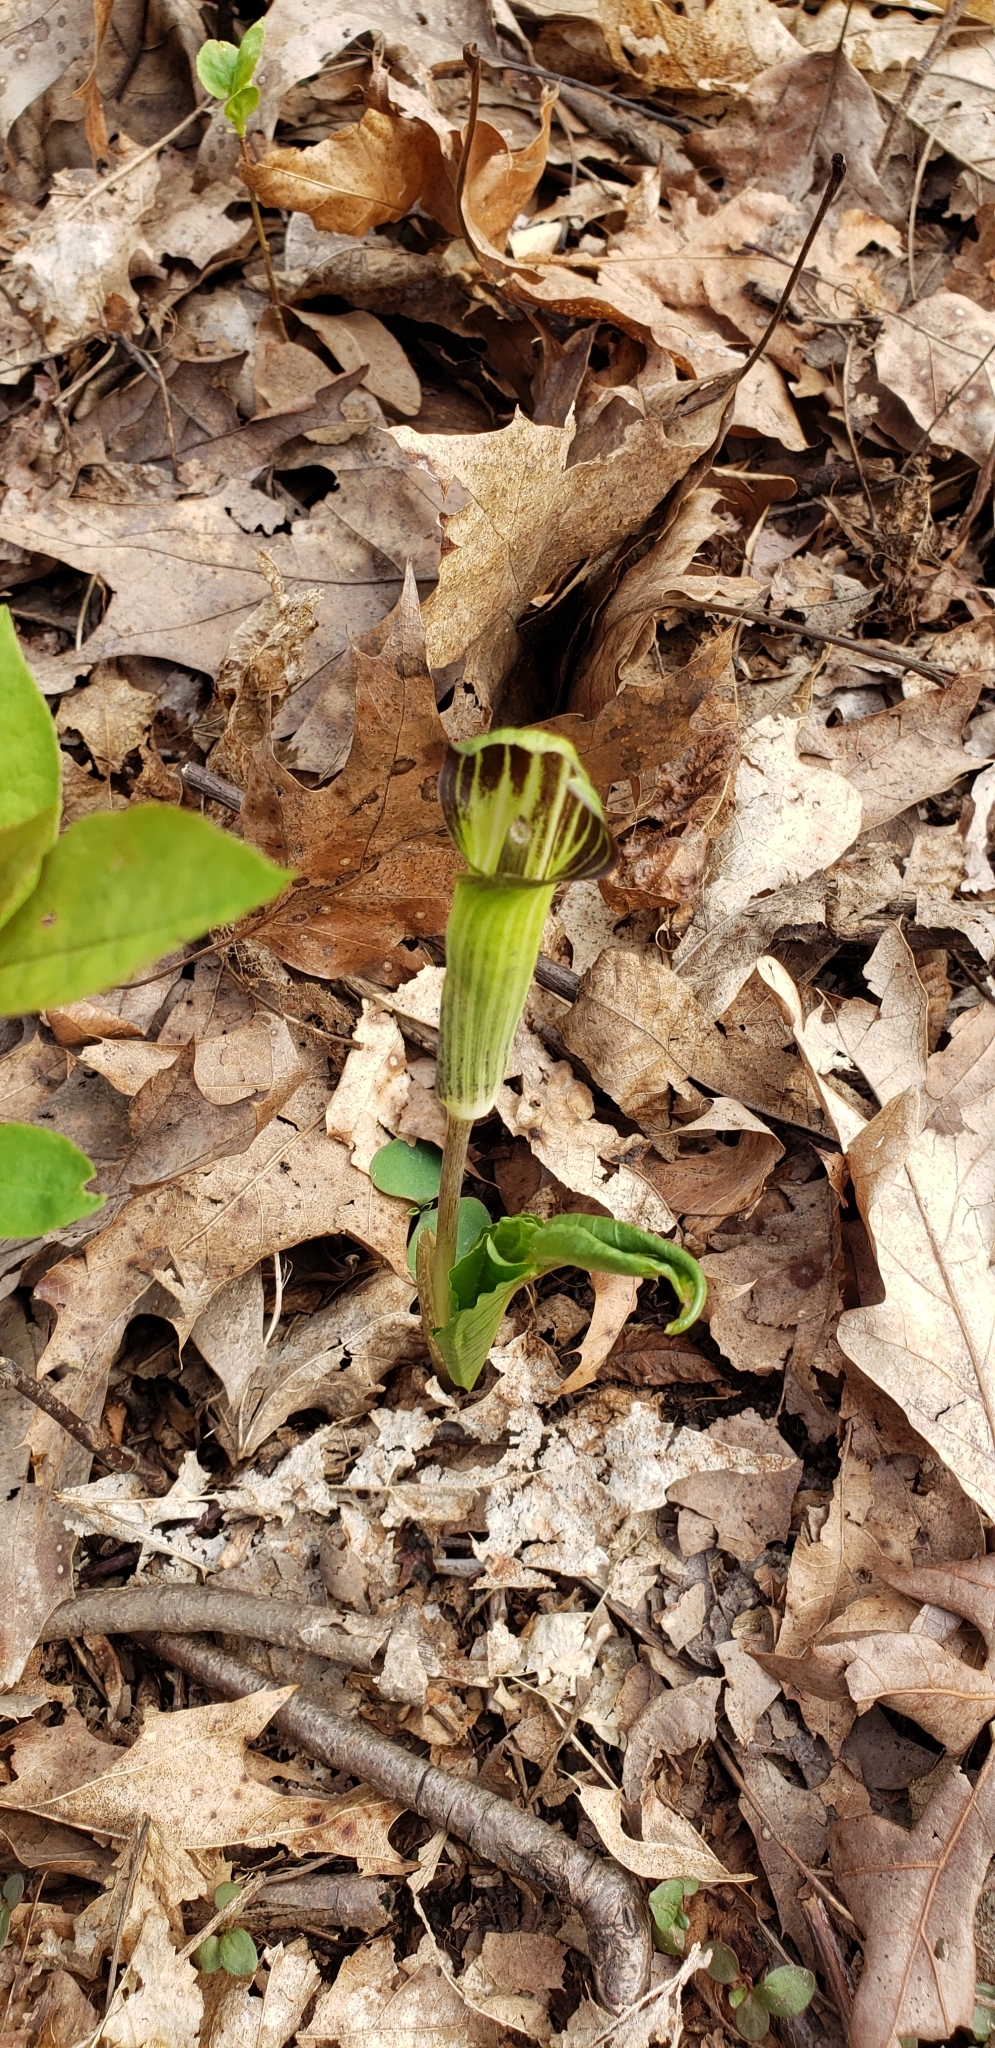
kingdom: Plantae
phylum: Tracheophyta
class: Liliopsida
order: Alismatales
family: Araceae
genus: Arisaema
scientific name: Arisaema triphyllum
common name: Jack-in-the-pulpit
